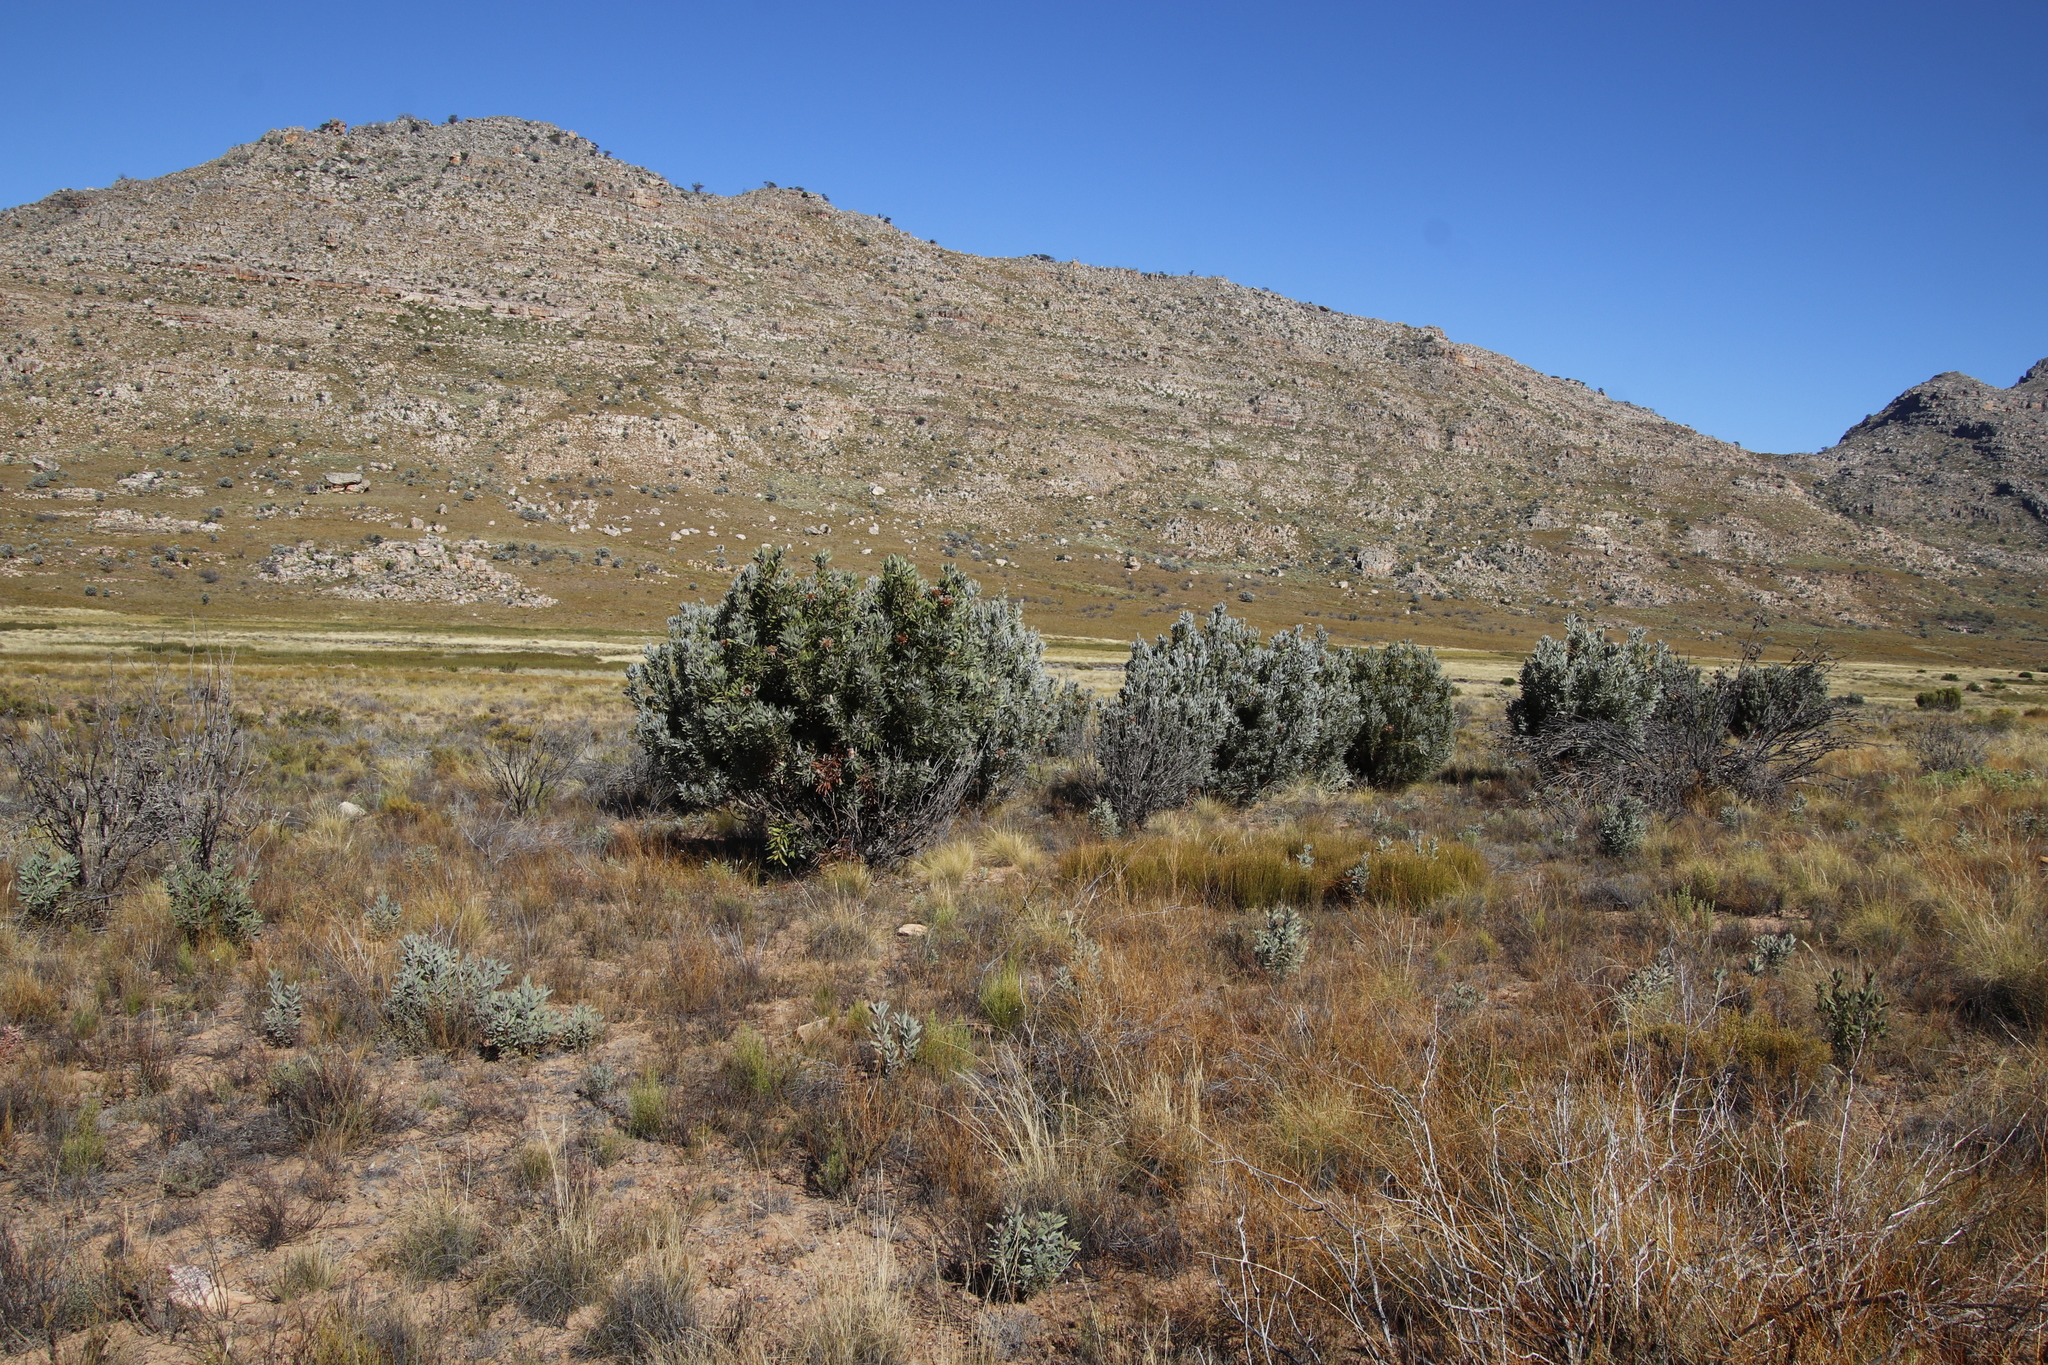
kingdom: Plantae
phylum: Tracheophyta
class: Magnoliopsida
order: Proteales
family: Proteaceae
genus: Protea
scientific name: Protea laurifolia
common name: Grey-leaf sugarbsh
